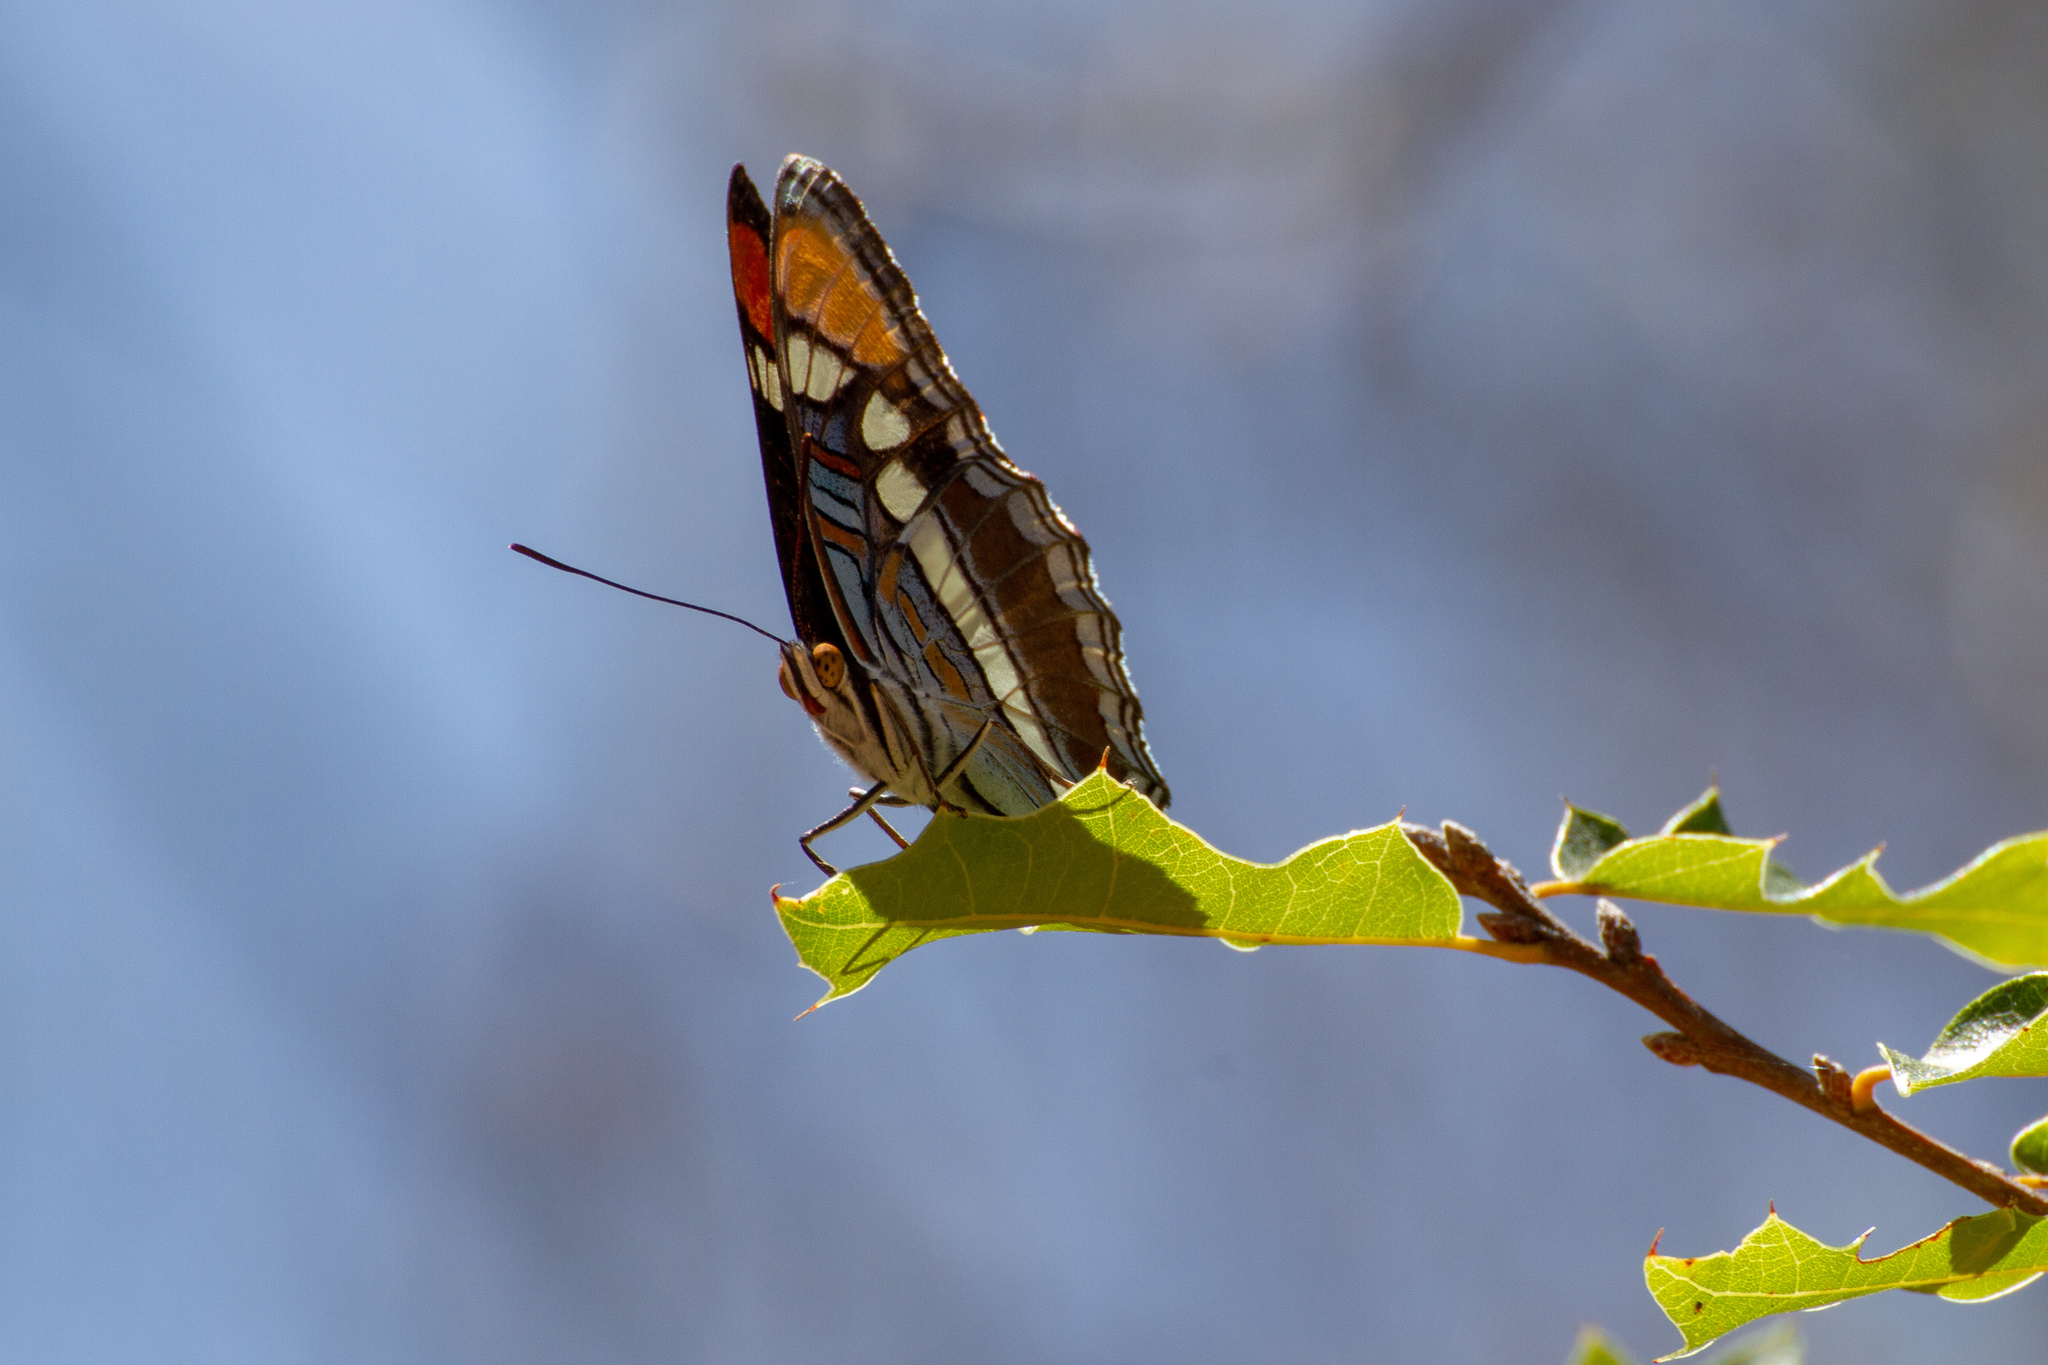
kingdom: Animalia
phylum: Arthropoda
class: Insecta
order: Lepidoptera
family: Nymphalidae
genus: Limenitis
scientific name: Limenitis bredowii
